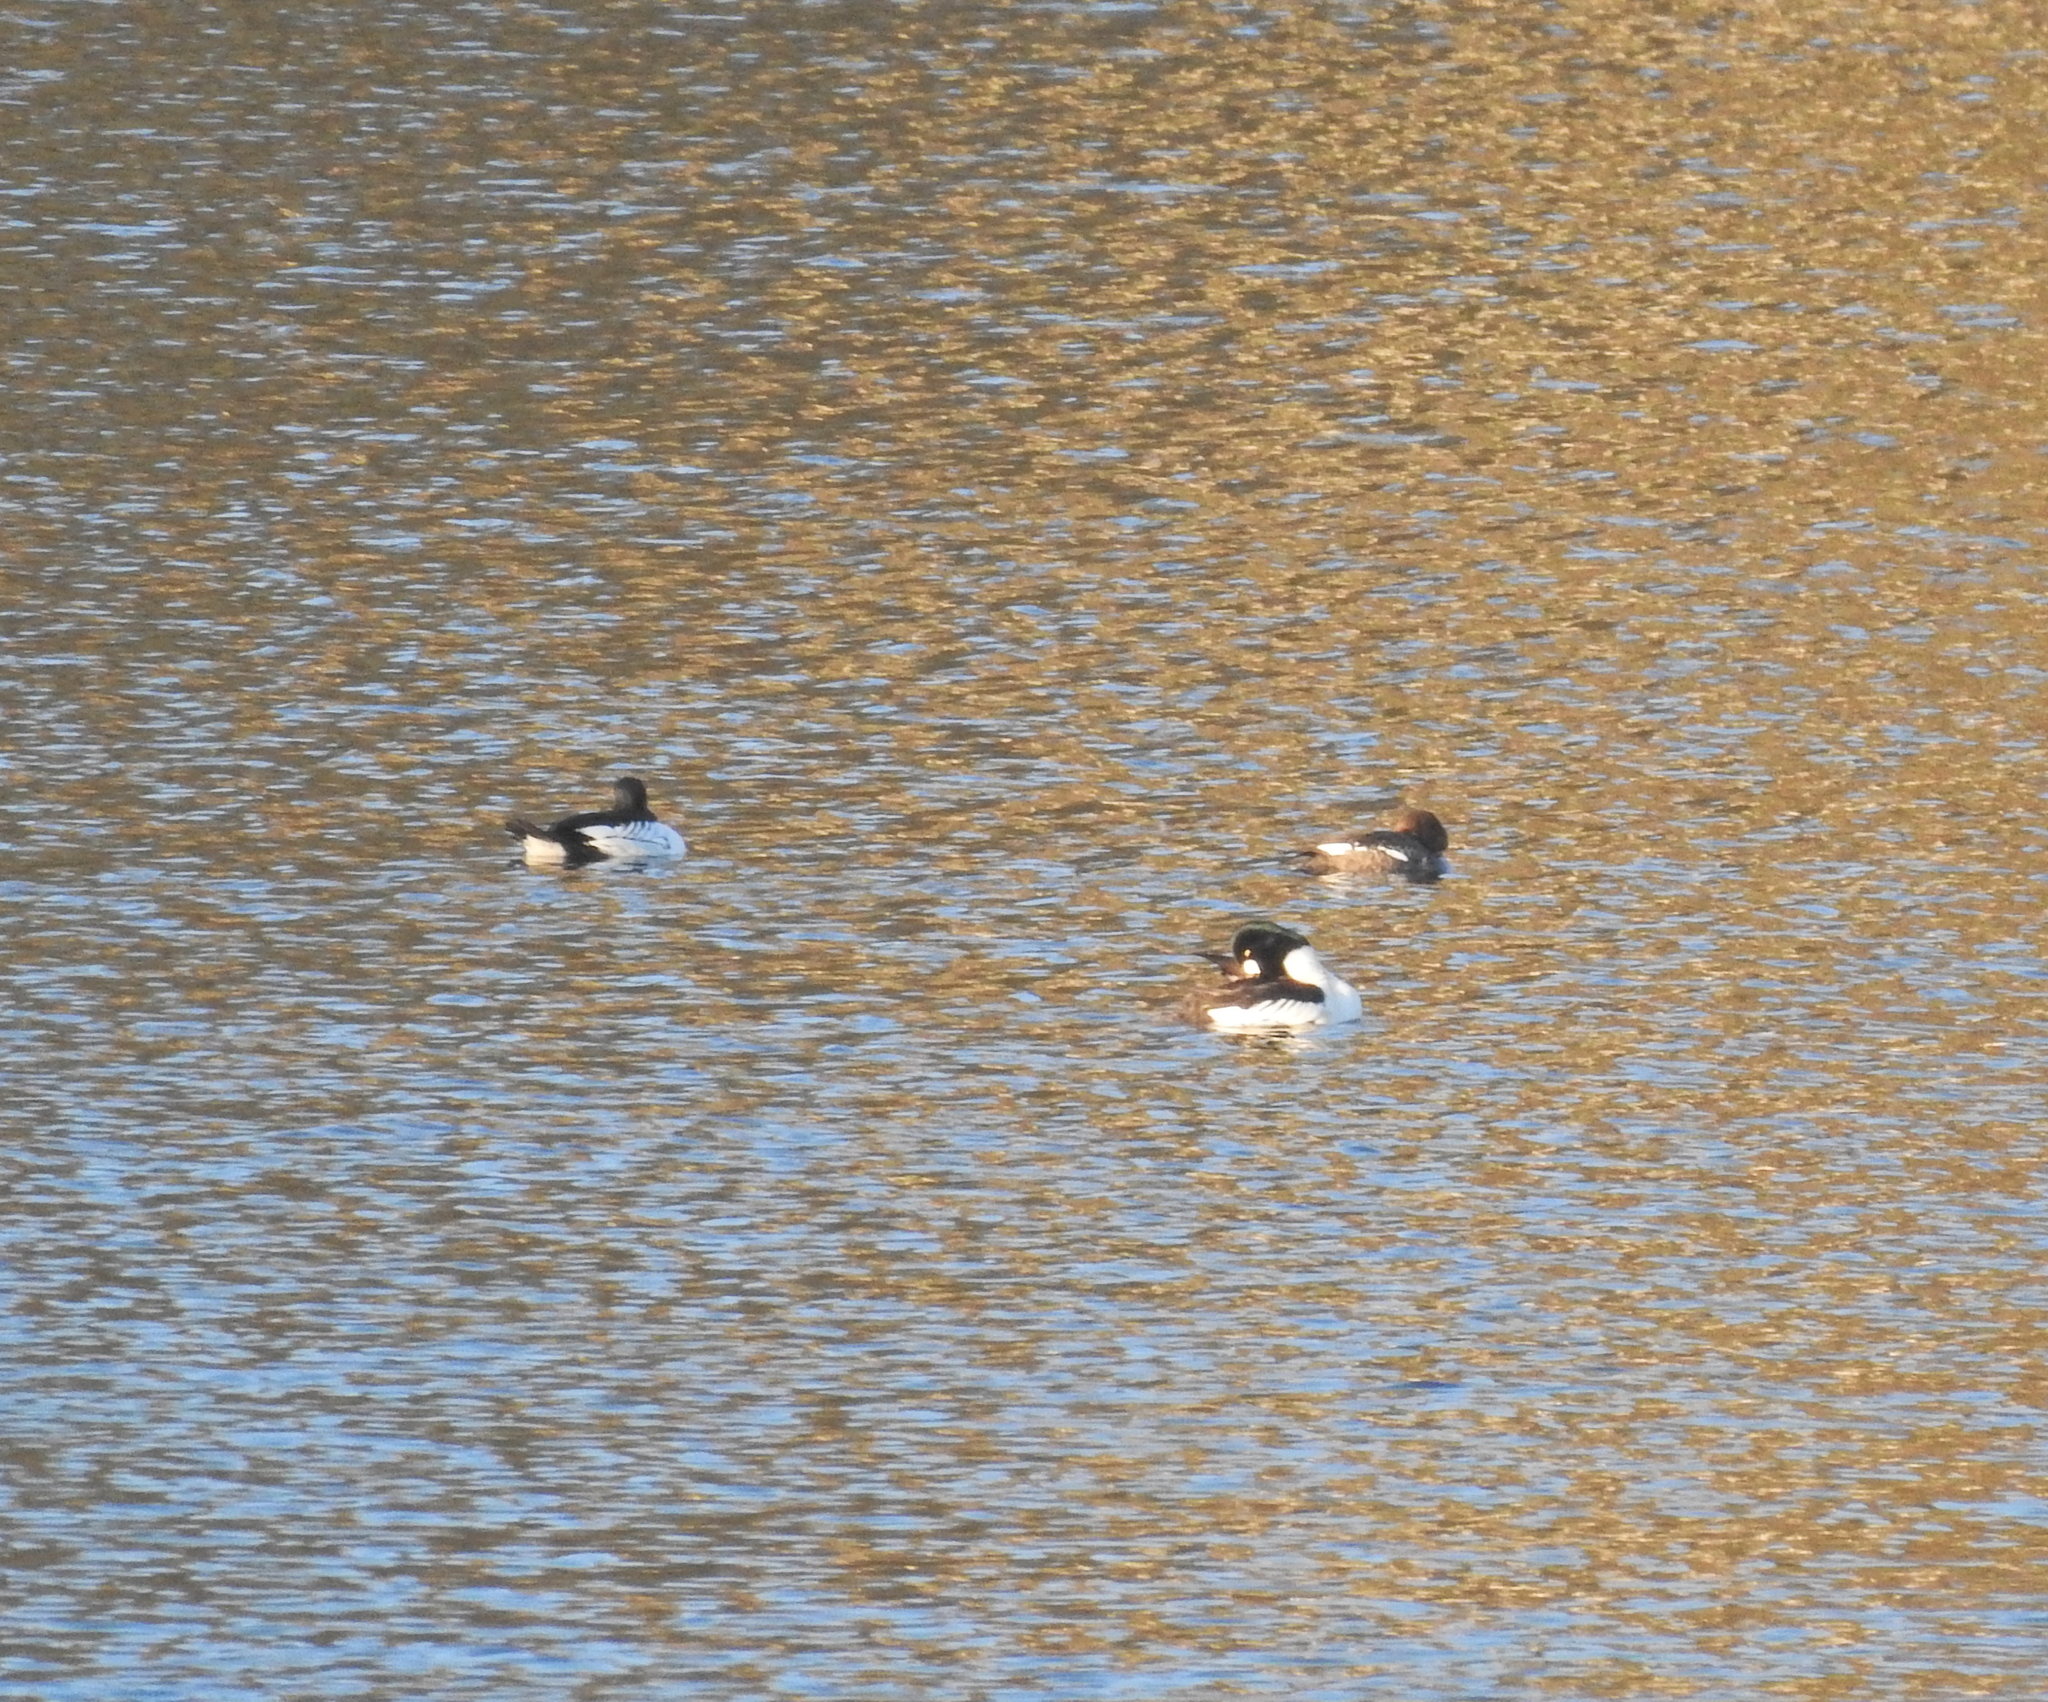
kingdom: Animalia
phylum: Chordata
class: Aves
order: Anseriformes
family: Anatidae
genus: Bucephala
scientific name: Bucephala clangula
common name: Common goldeneye
